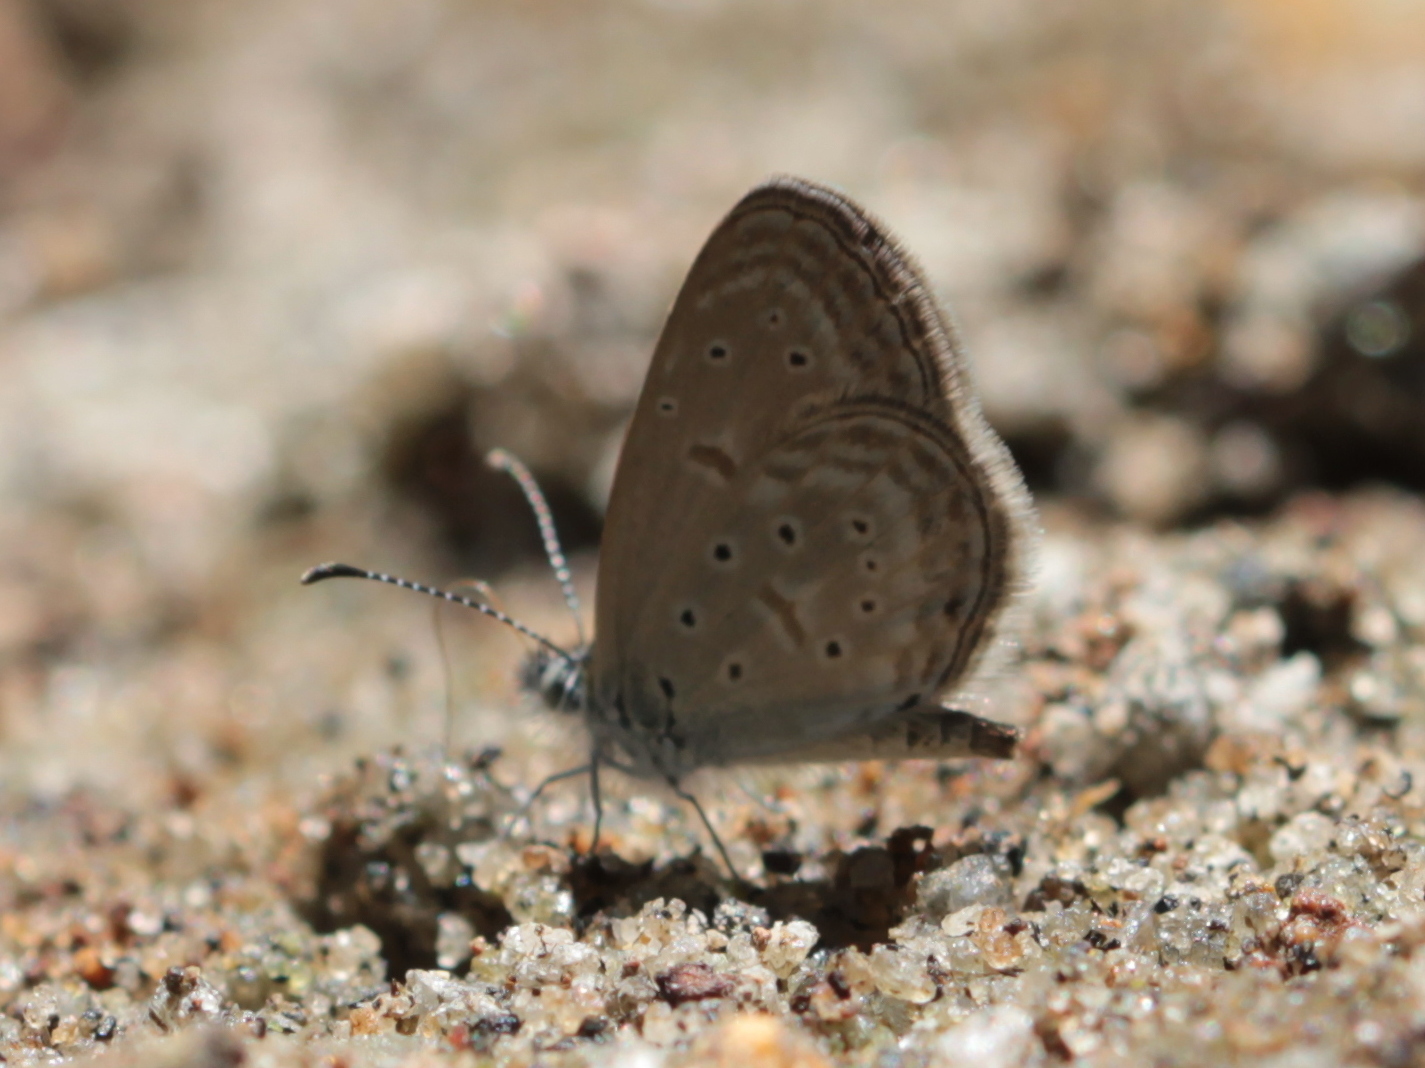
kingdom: Animalia
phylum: Arthropoda
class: Insecta
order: Lepidoptera
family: Lycaenidae
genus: Zizula
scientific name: Zizula hylax
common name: Gaika blue
